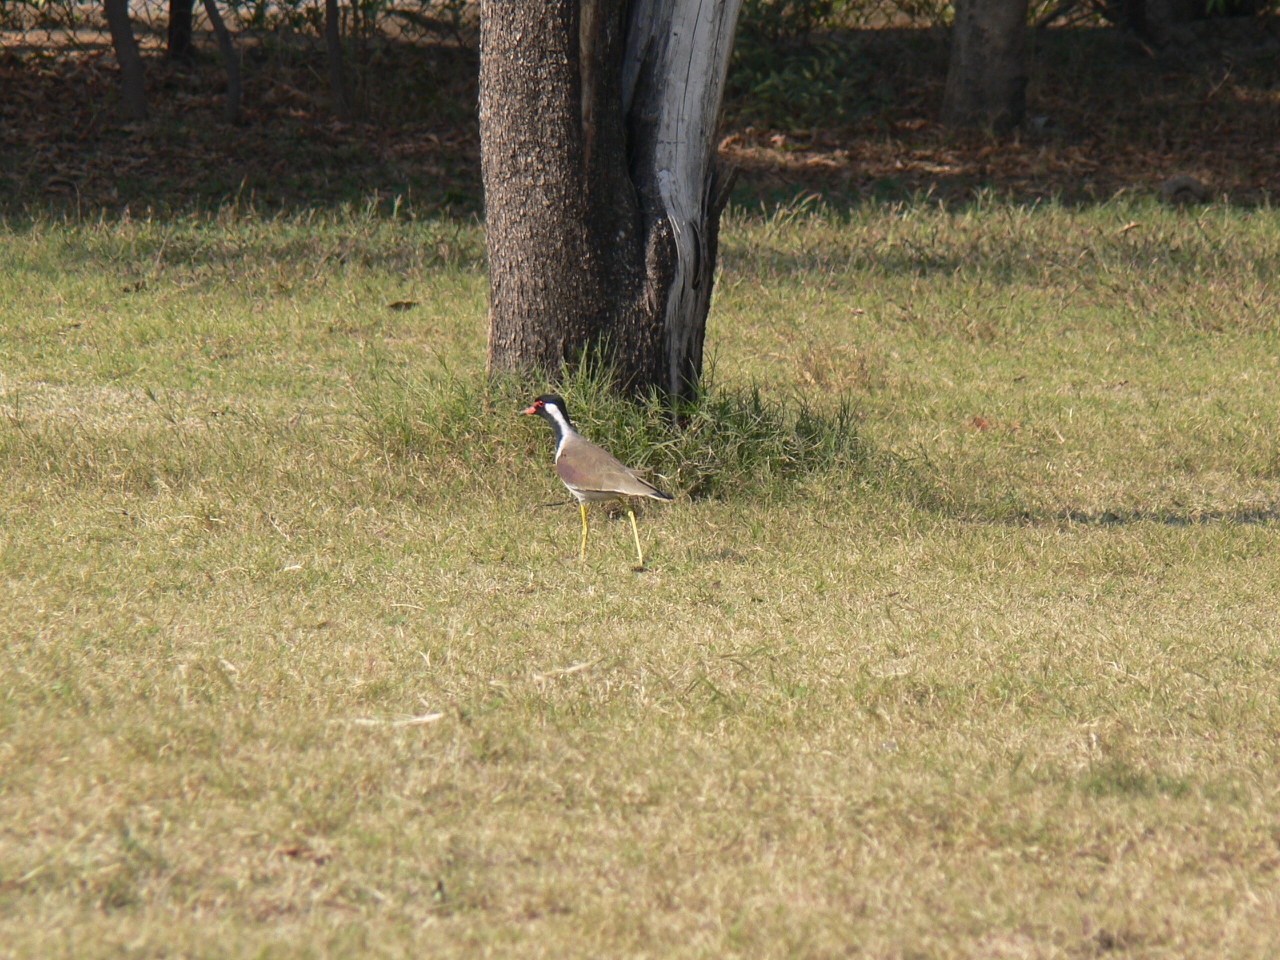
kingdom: Animalia
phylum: Chordata
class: Aves
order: Charadriiformes
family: Charadriidae
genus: Vanellus
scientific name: Vanellus indicus
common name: Red-wattled lapwing
